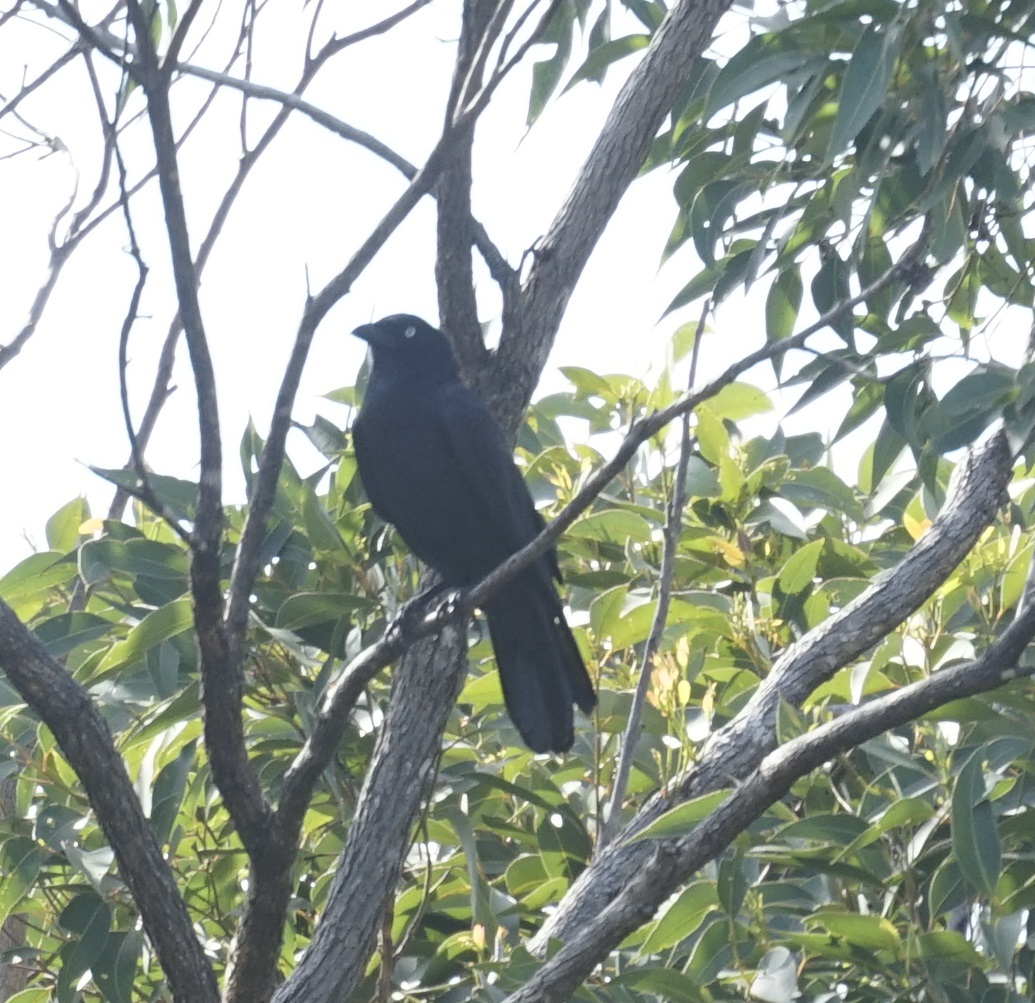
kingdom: Animalia
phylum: Chordata
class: Aves
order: Passeriformes
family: Corvidae
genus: Corvus
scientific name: Corvus orru
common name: Torresian crow
